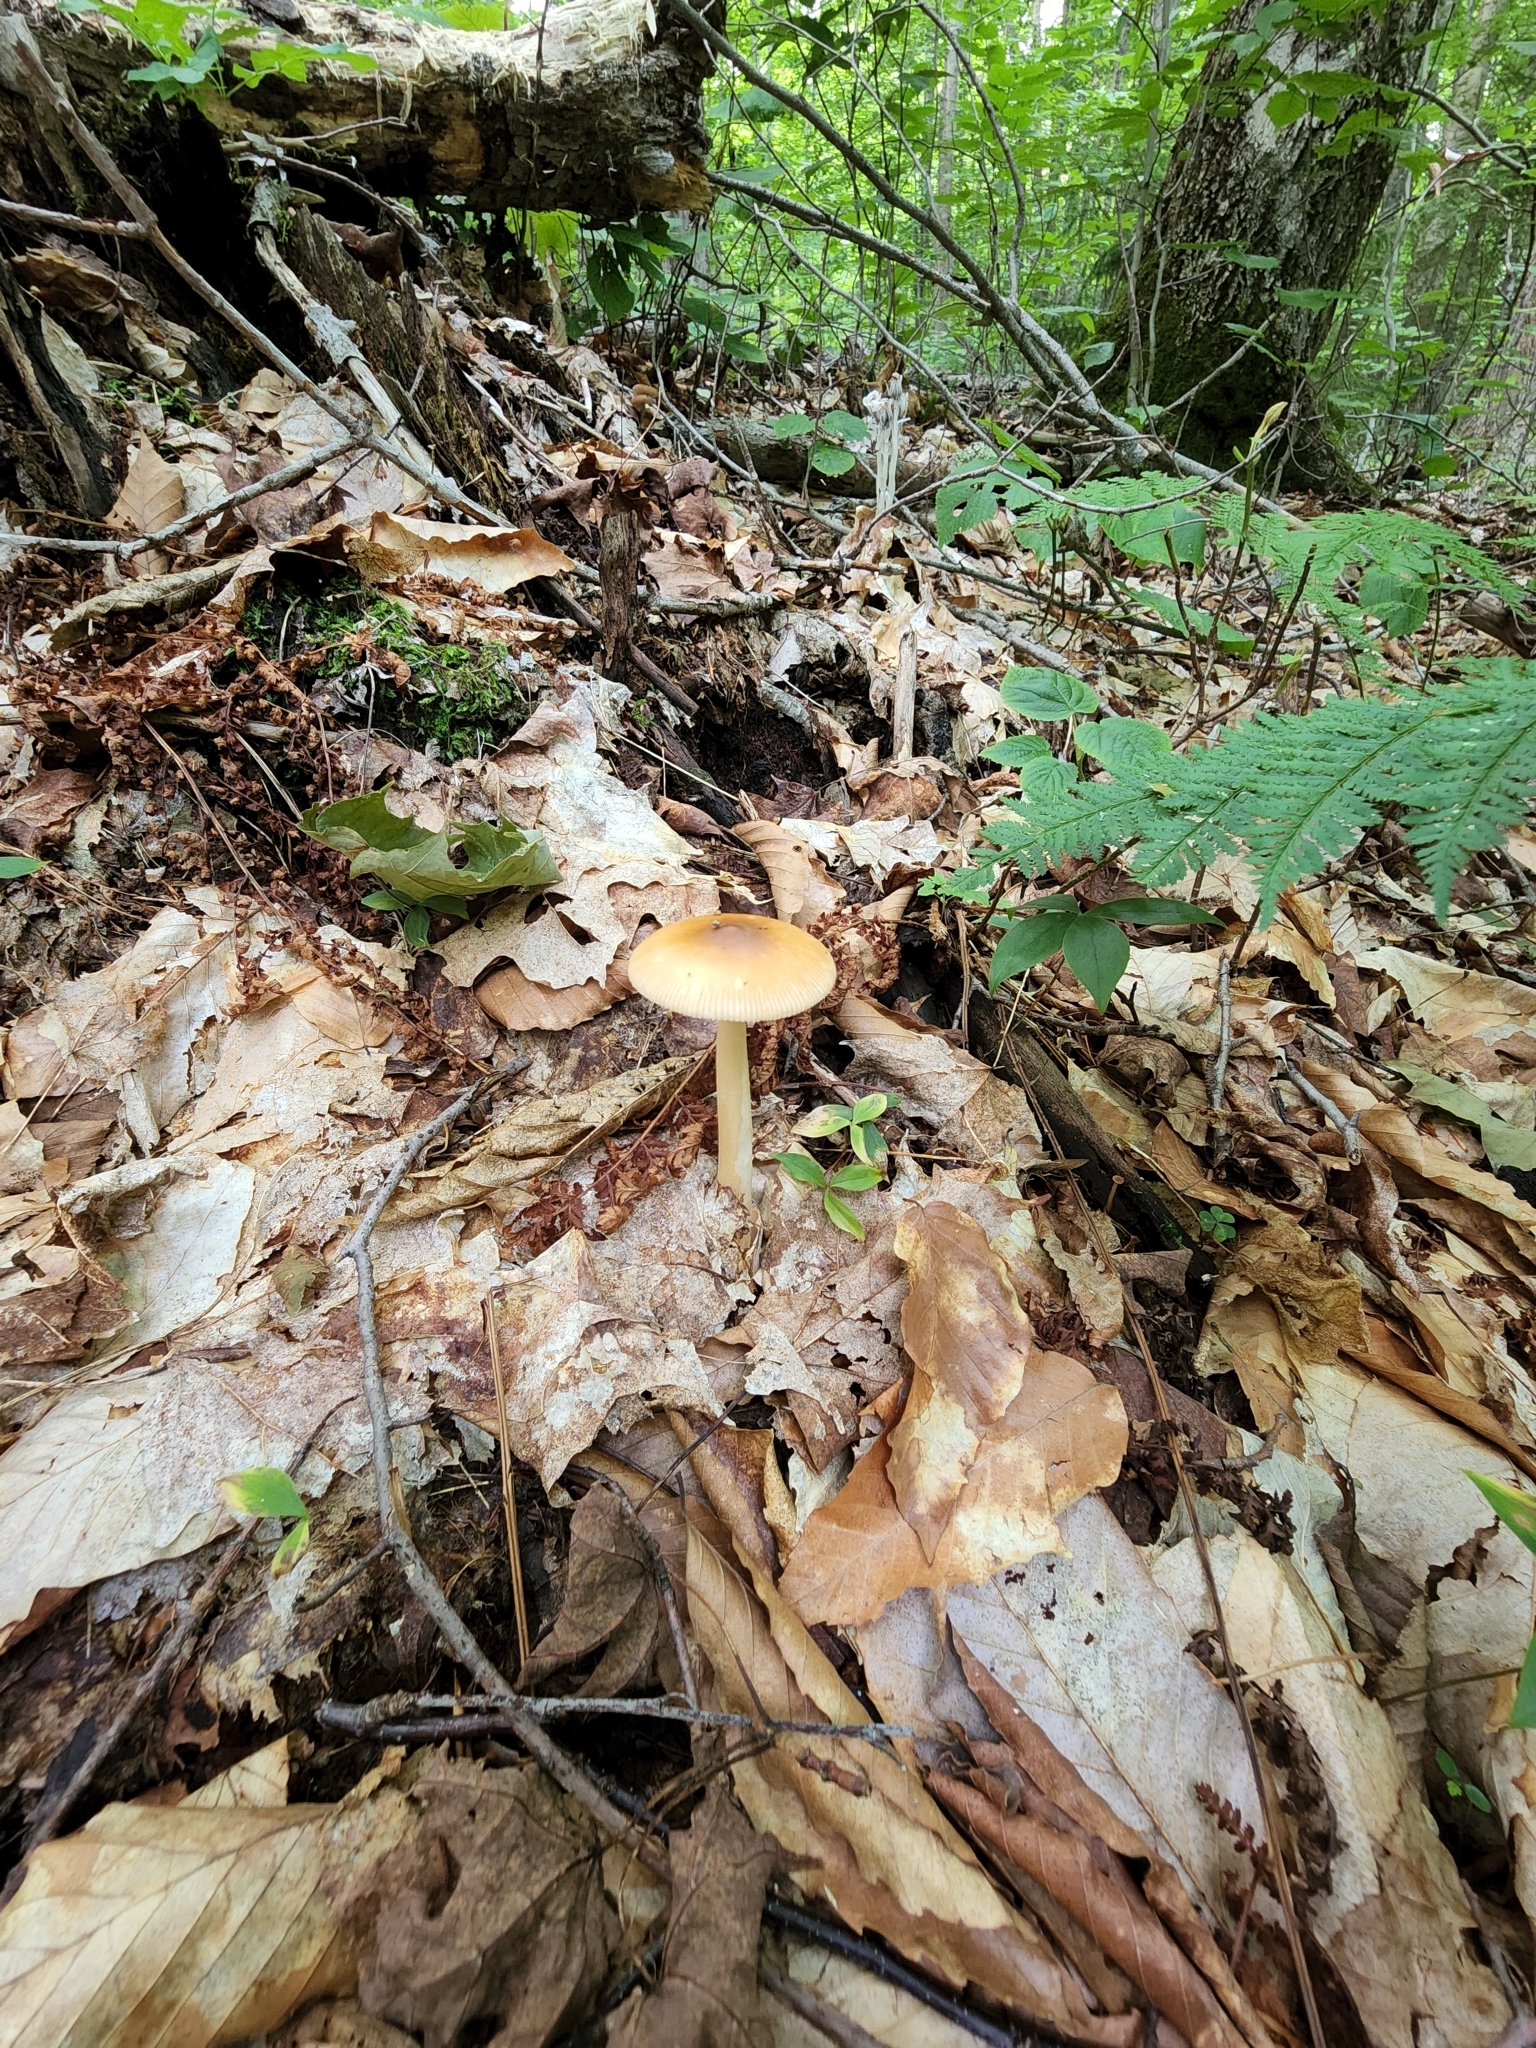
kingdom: Fungi
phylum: Basidiomycota
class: Agaricomycetes
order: Agaricales
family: Amanitaceae
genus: Amanita
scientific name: Amanita fulva
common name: Tawny grisette
